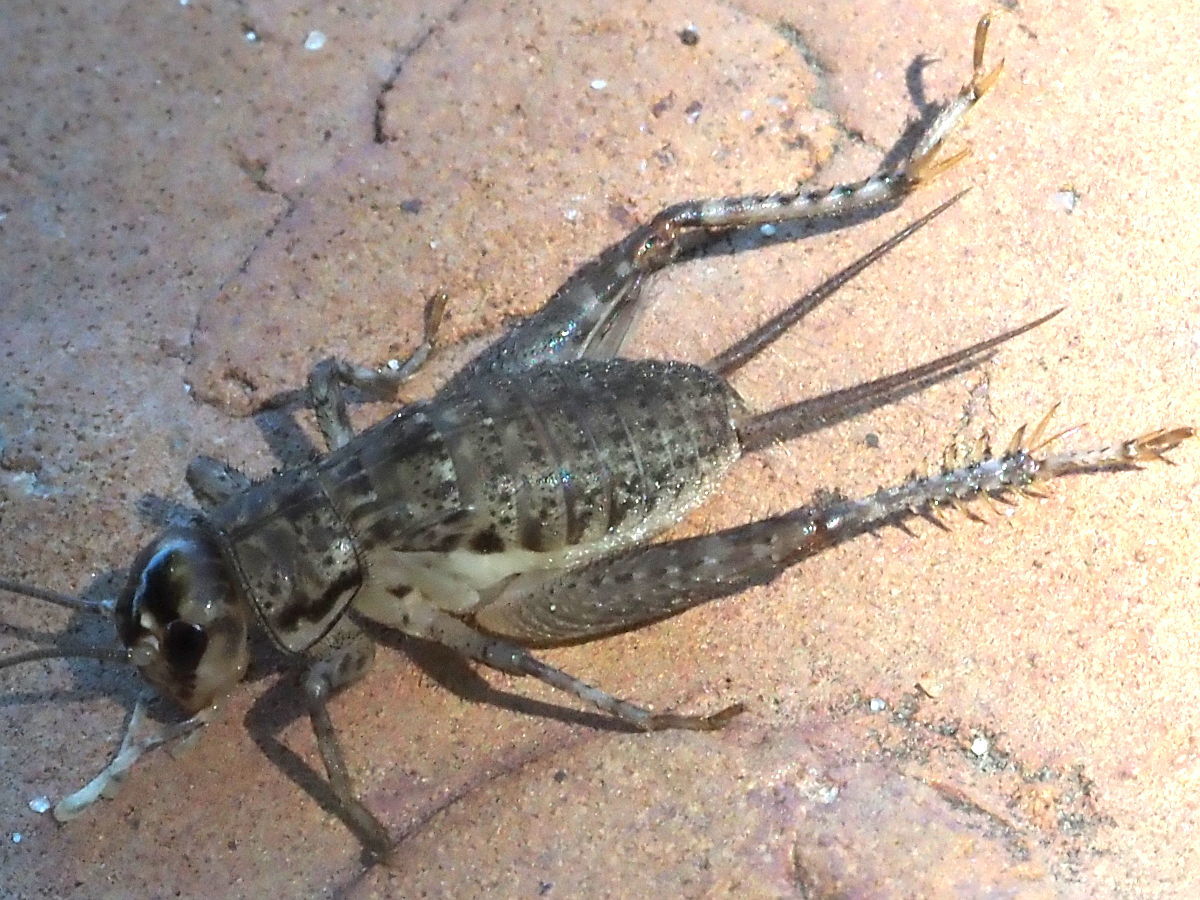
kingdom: Animalia
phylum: Arthropoda
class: Insecta
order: Orthoptera
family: Gryllidae
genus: Velarifictorus
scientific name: Velarifictorus micado
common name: Japanese burrowing cricket
